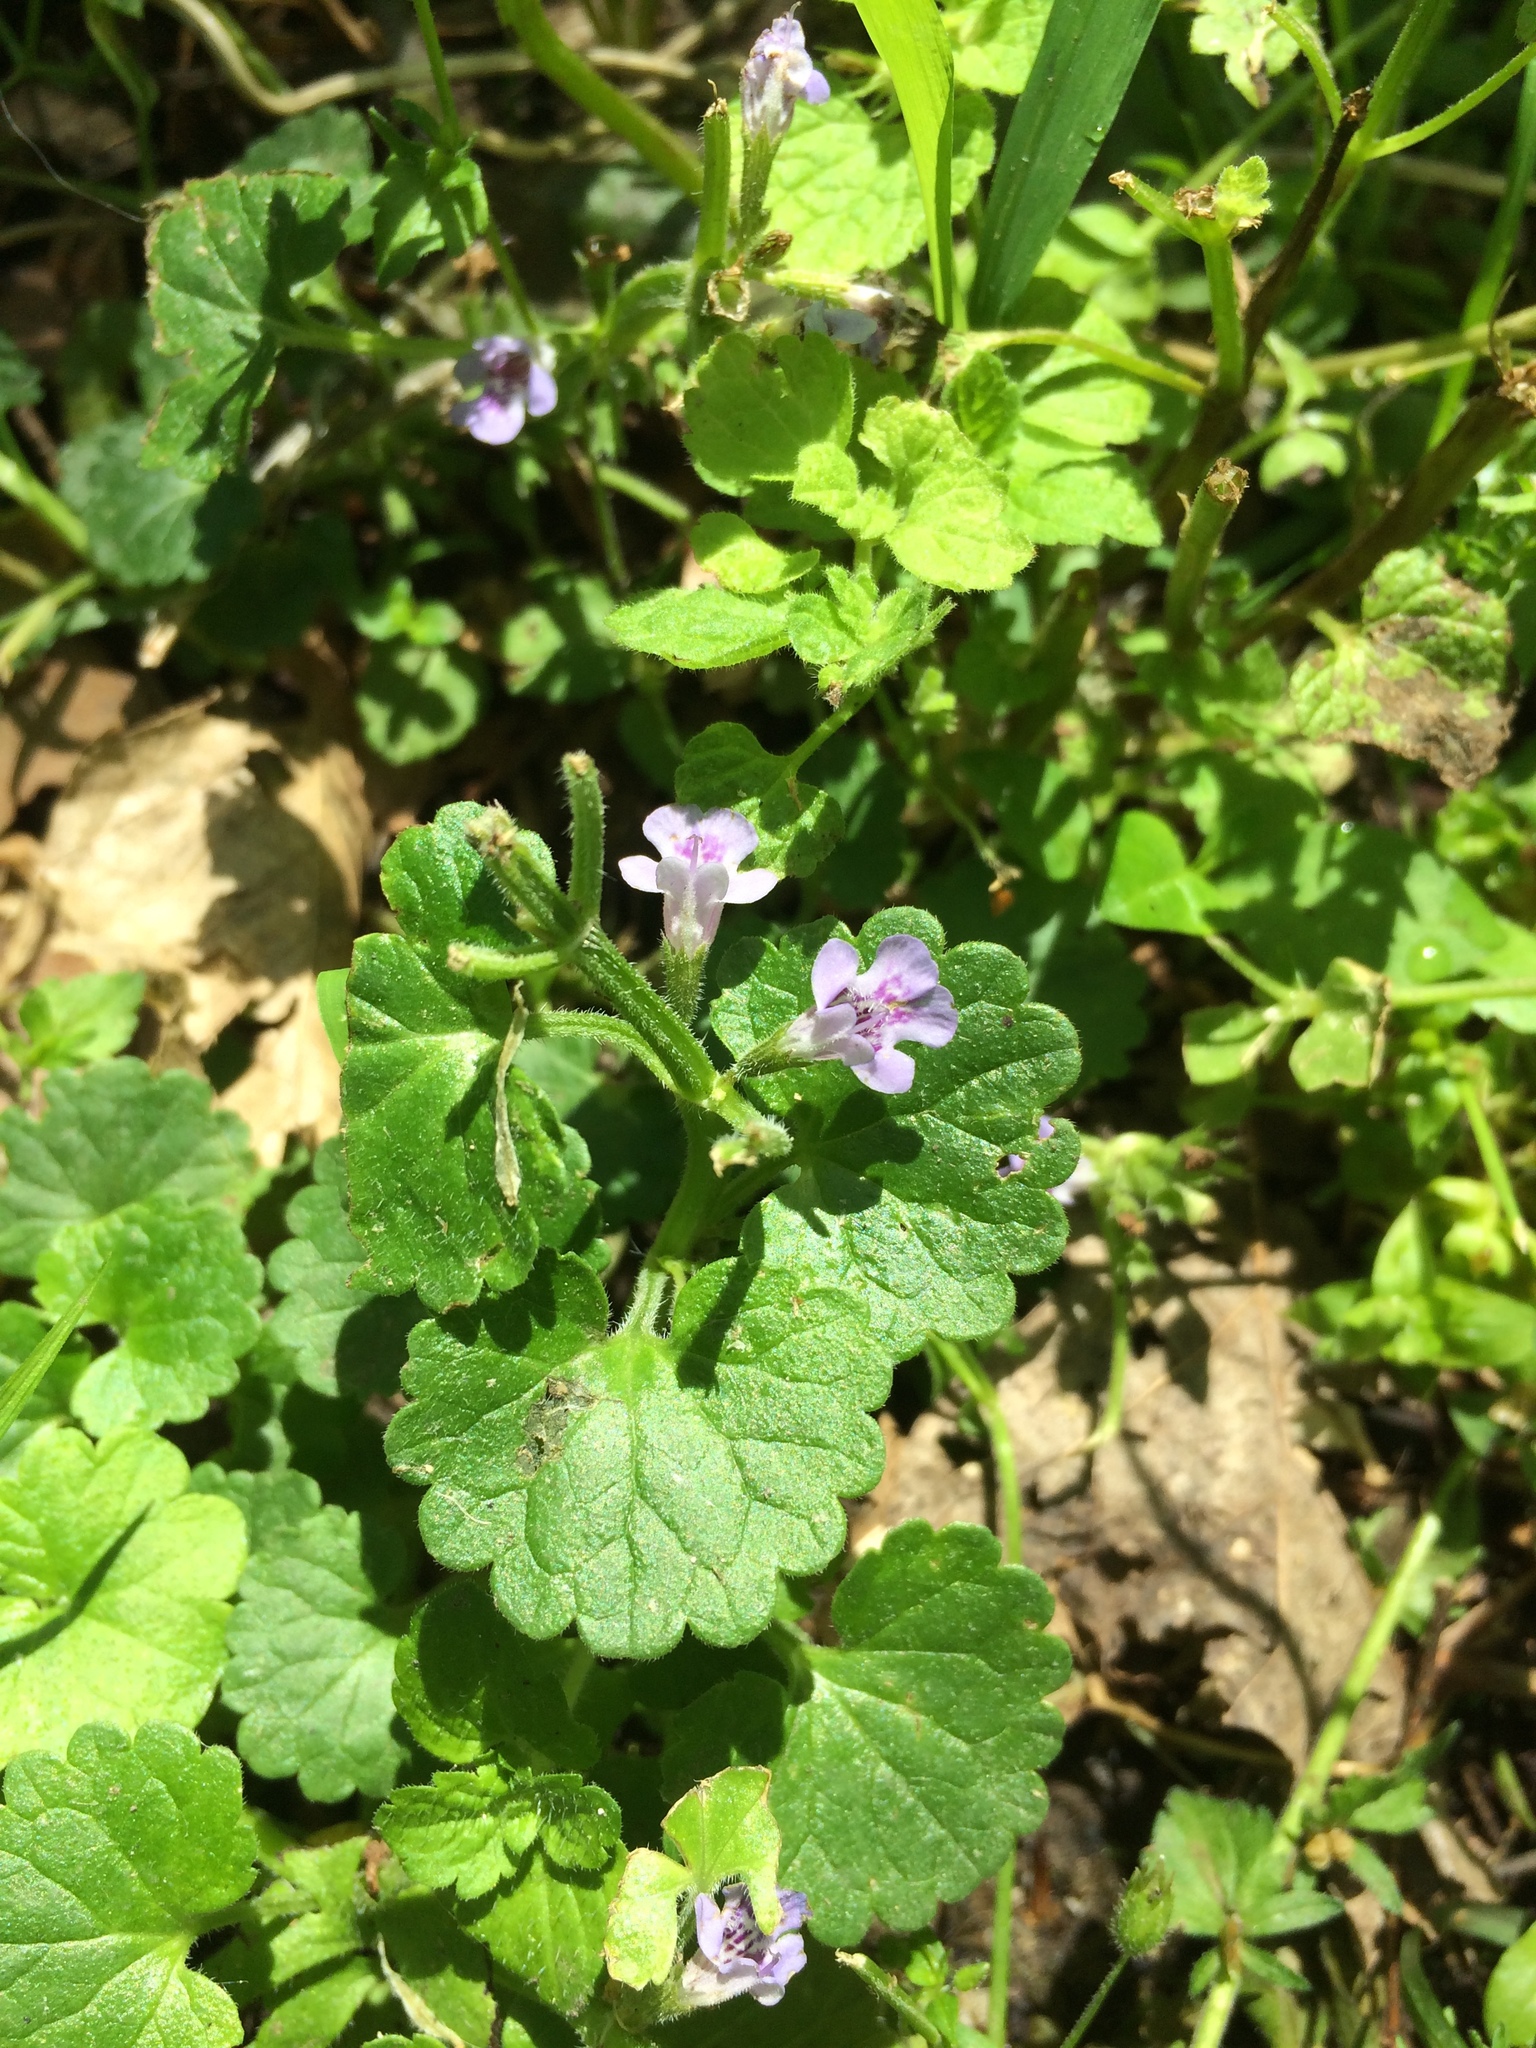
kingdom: Plantae
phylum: Tracheophyta
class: Magnoliopsida
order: Lamiales
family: Lamiaceae
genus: Glechoma
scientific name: Glechoma hederacea
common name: Ground ivy
